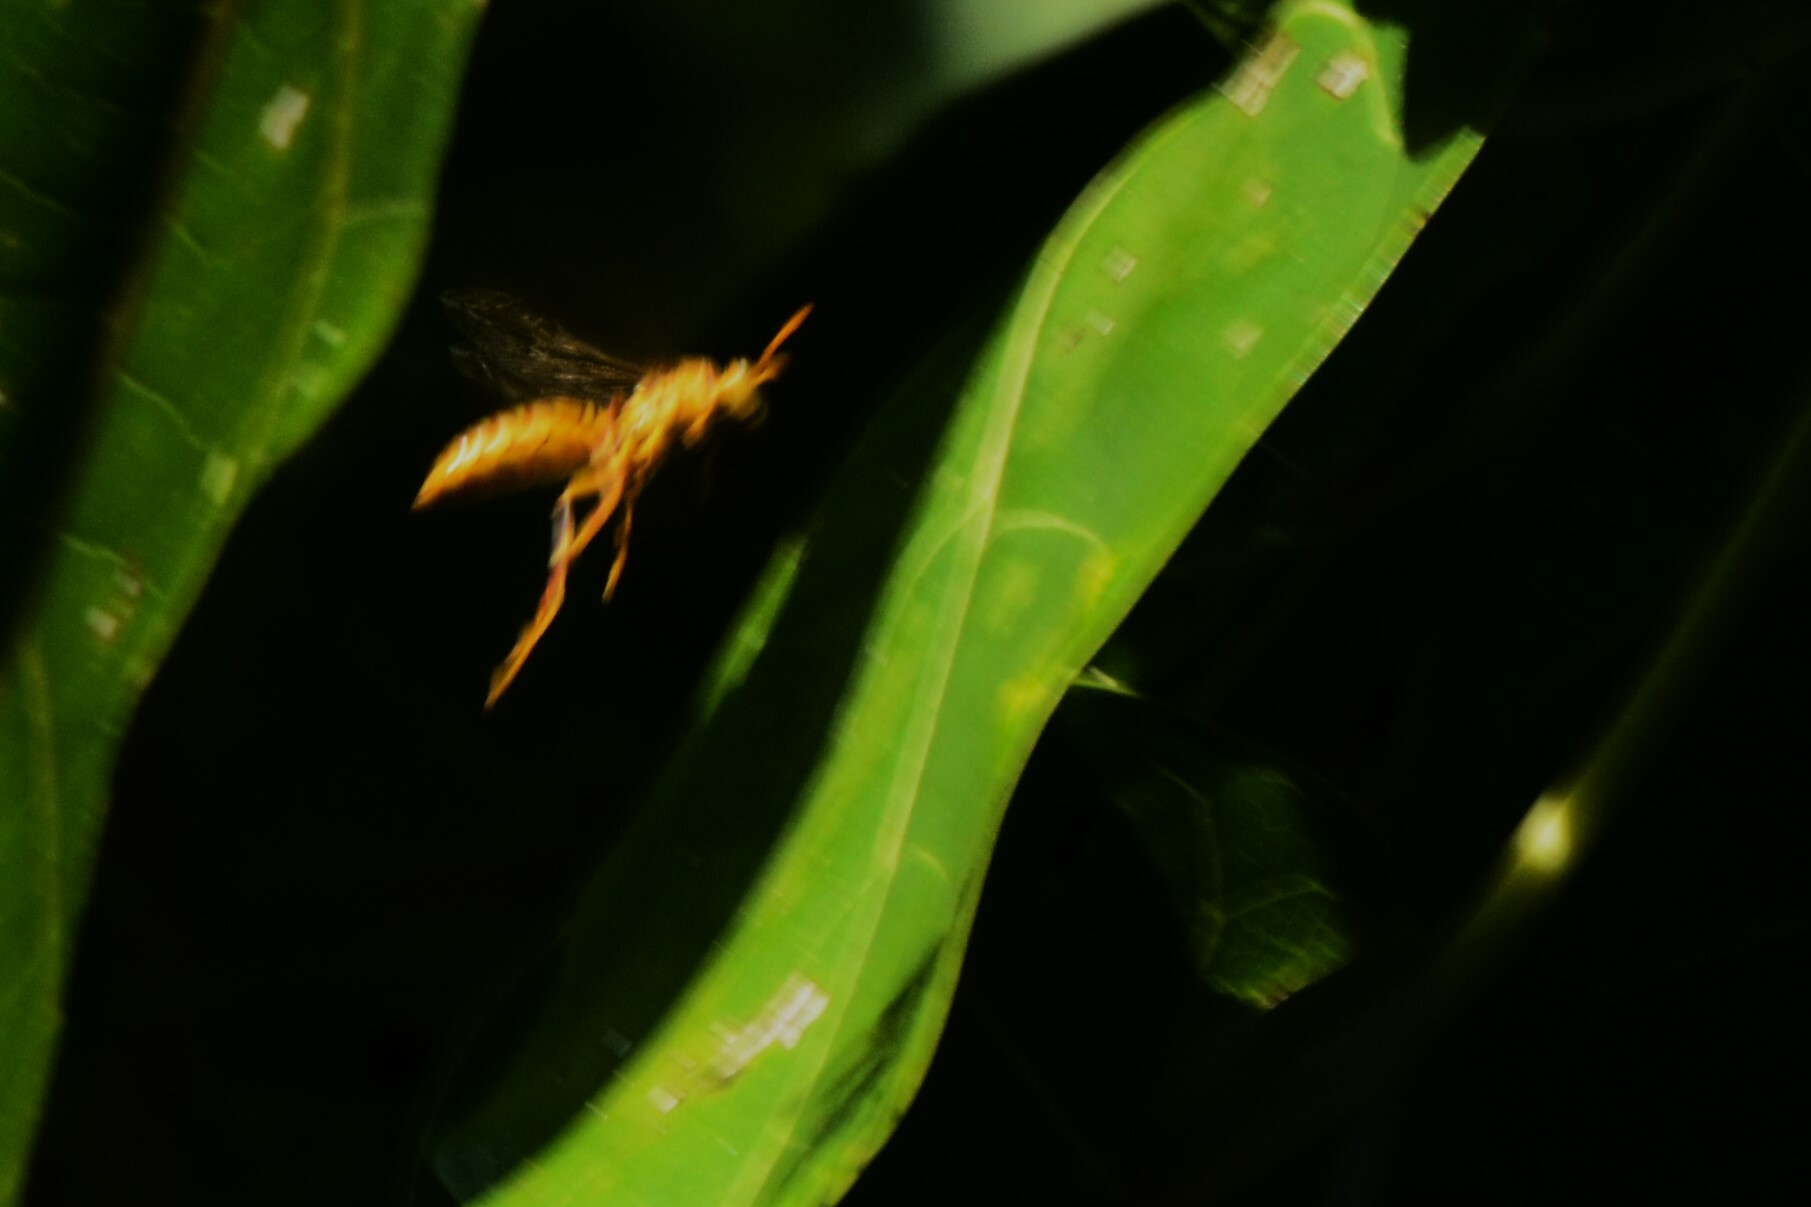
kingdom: Animalia
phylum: Arthropoda
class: Insecta
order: Hymenoptera
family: Eumenidae
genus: Polistes
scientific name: Polistes olivaceus
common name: Paper wasp
